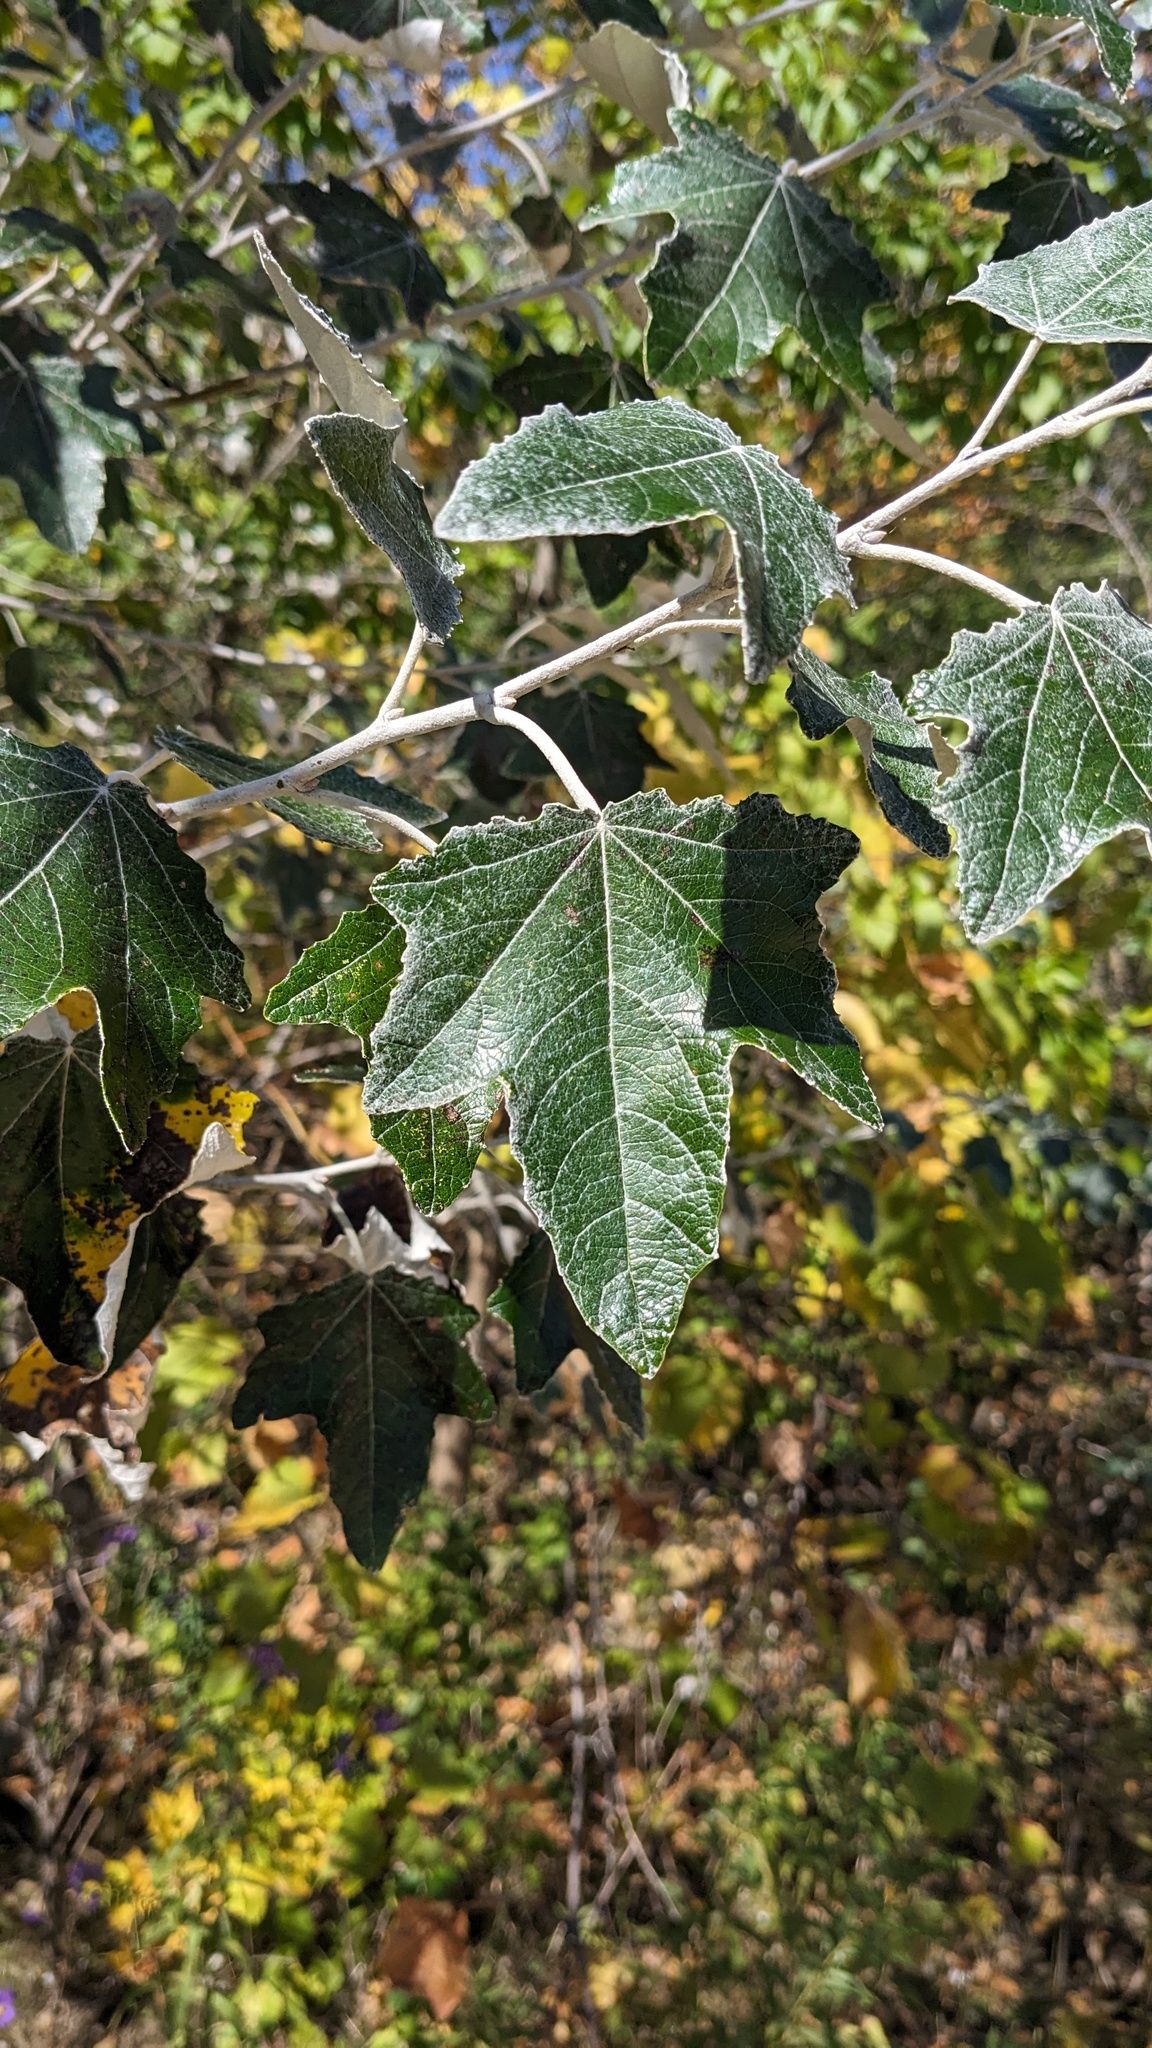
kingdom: Plantae
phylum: Tracheophyta
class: Magnoliopsida
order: Malpighiales
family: Salicaceae
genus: Populus
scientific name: Populus alba
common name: White poplar
